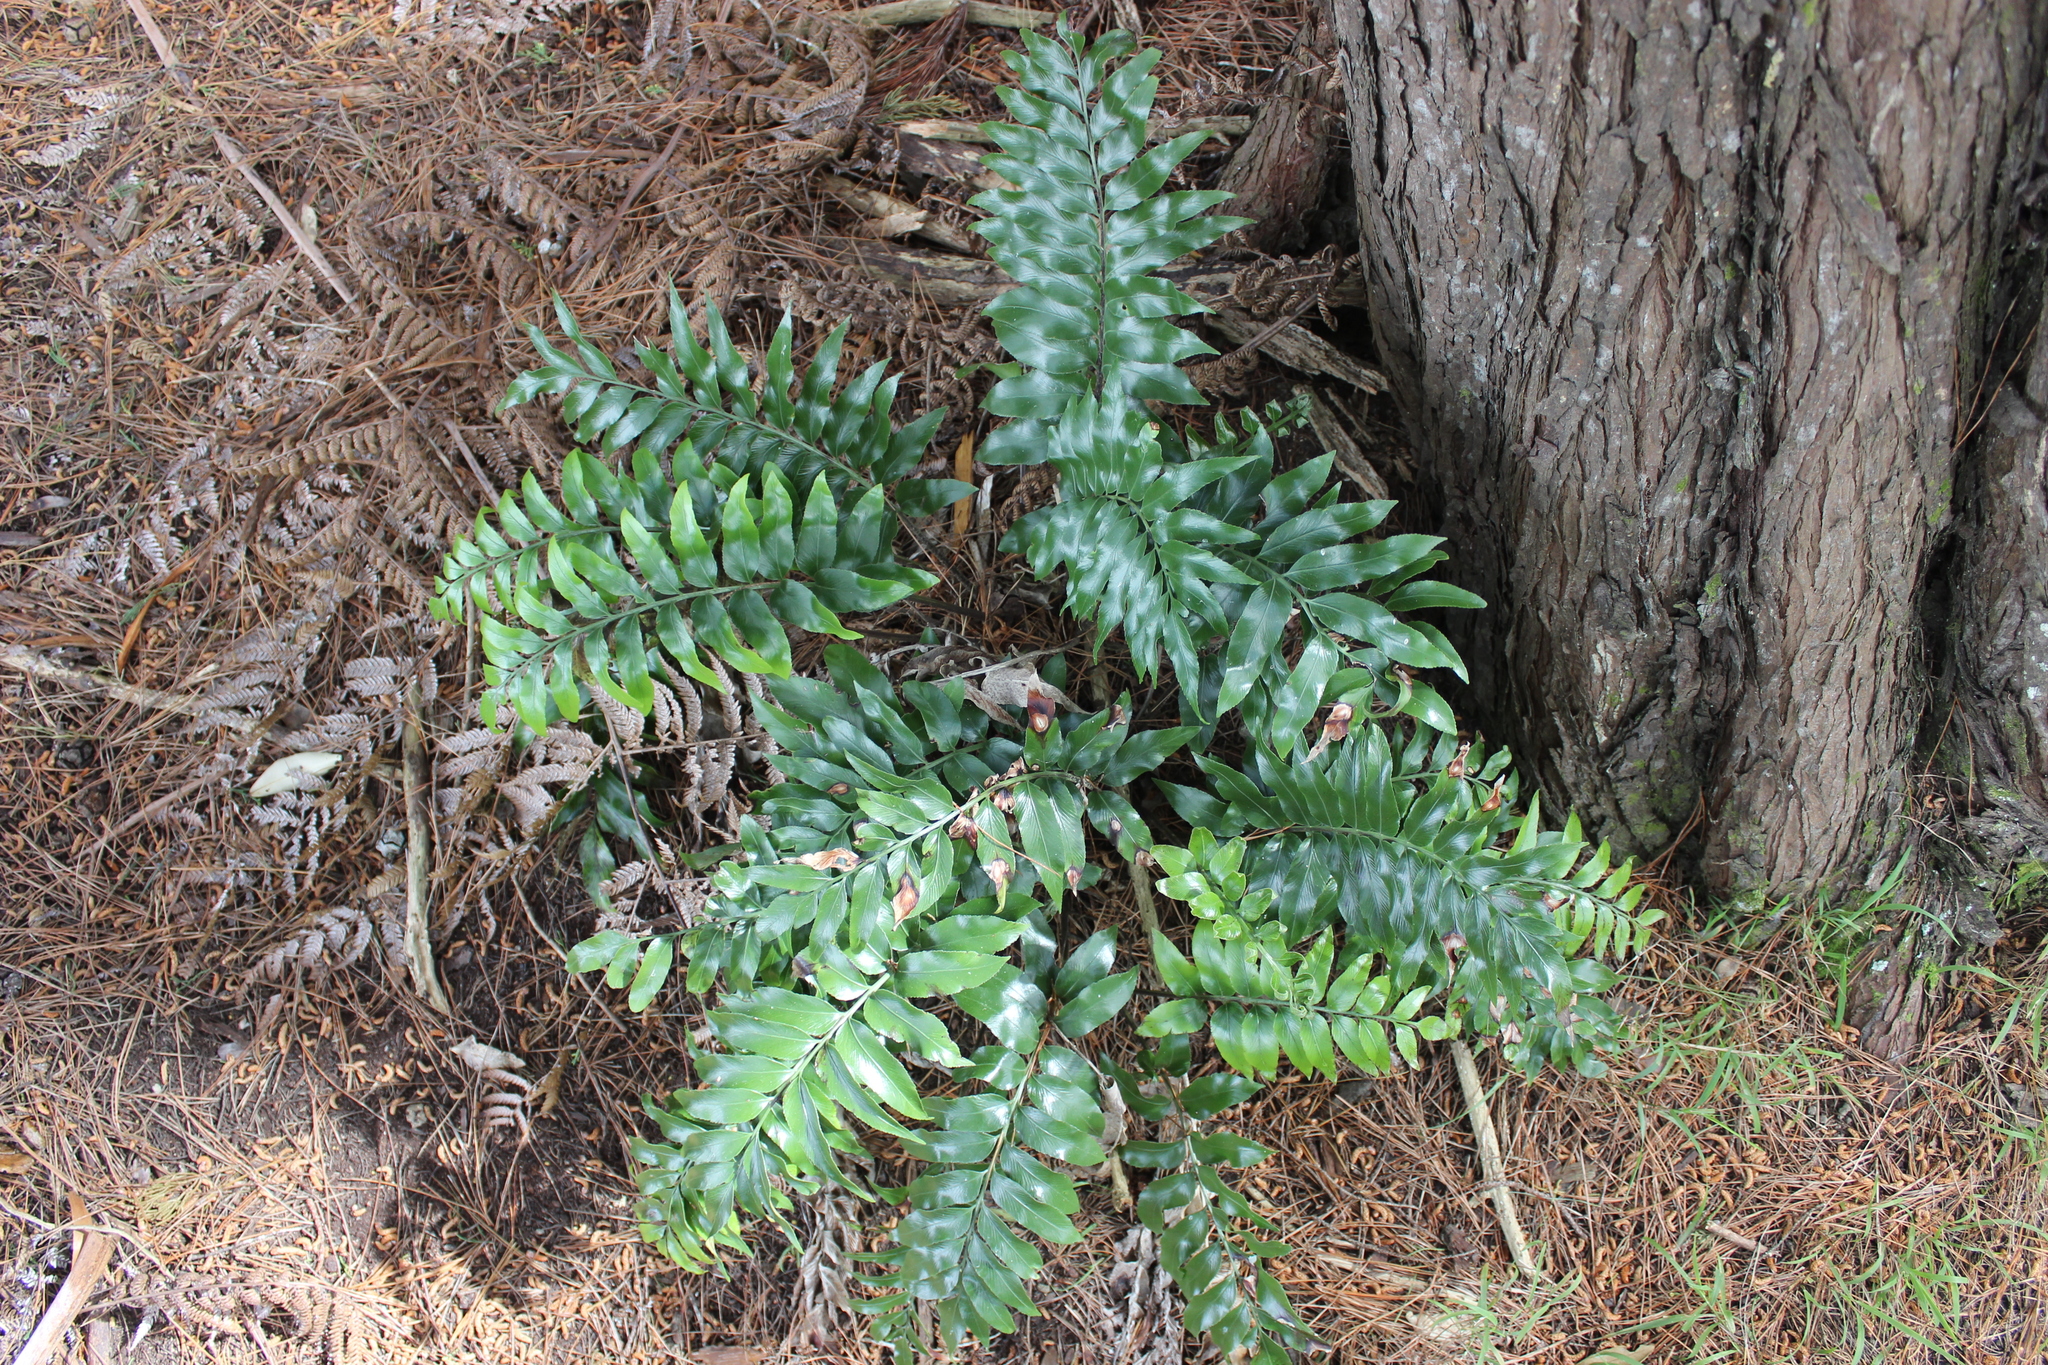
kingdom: Plantae
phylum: Tracheophyta
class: Polypodiopsida
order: Polypodiales
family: Aspleniaceae
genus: Asplenium
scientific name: Asplenium oblongifolium
